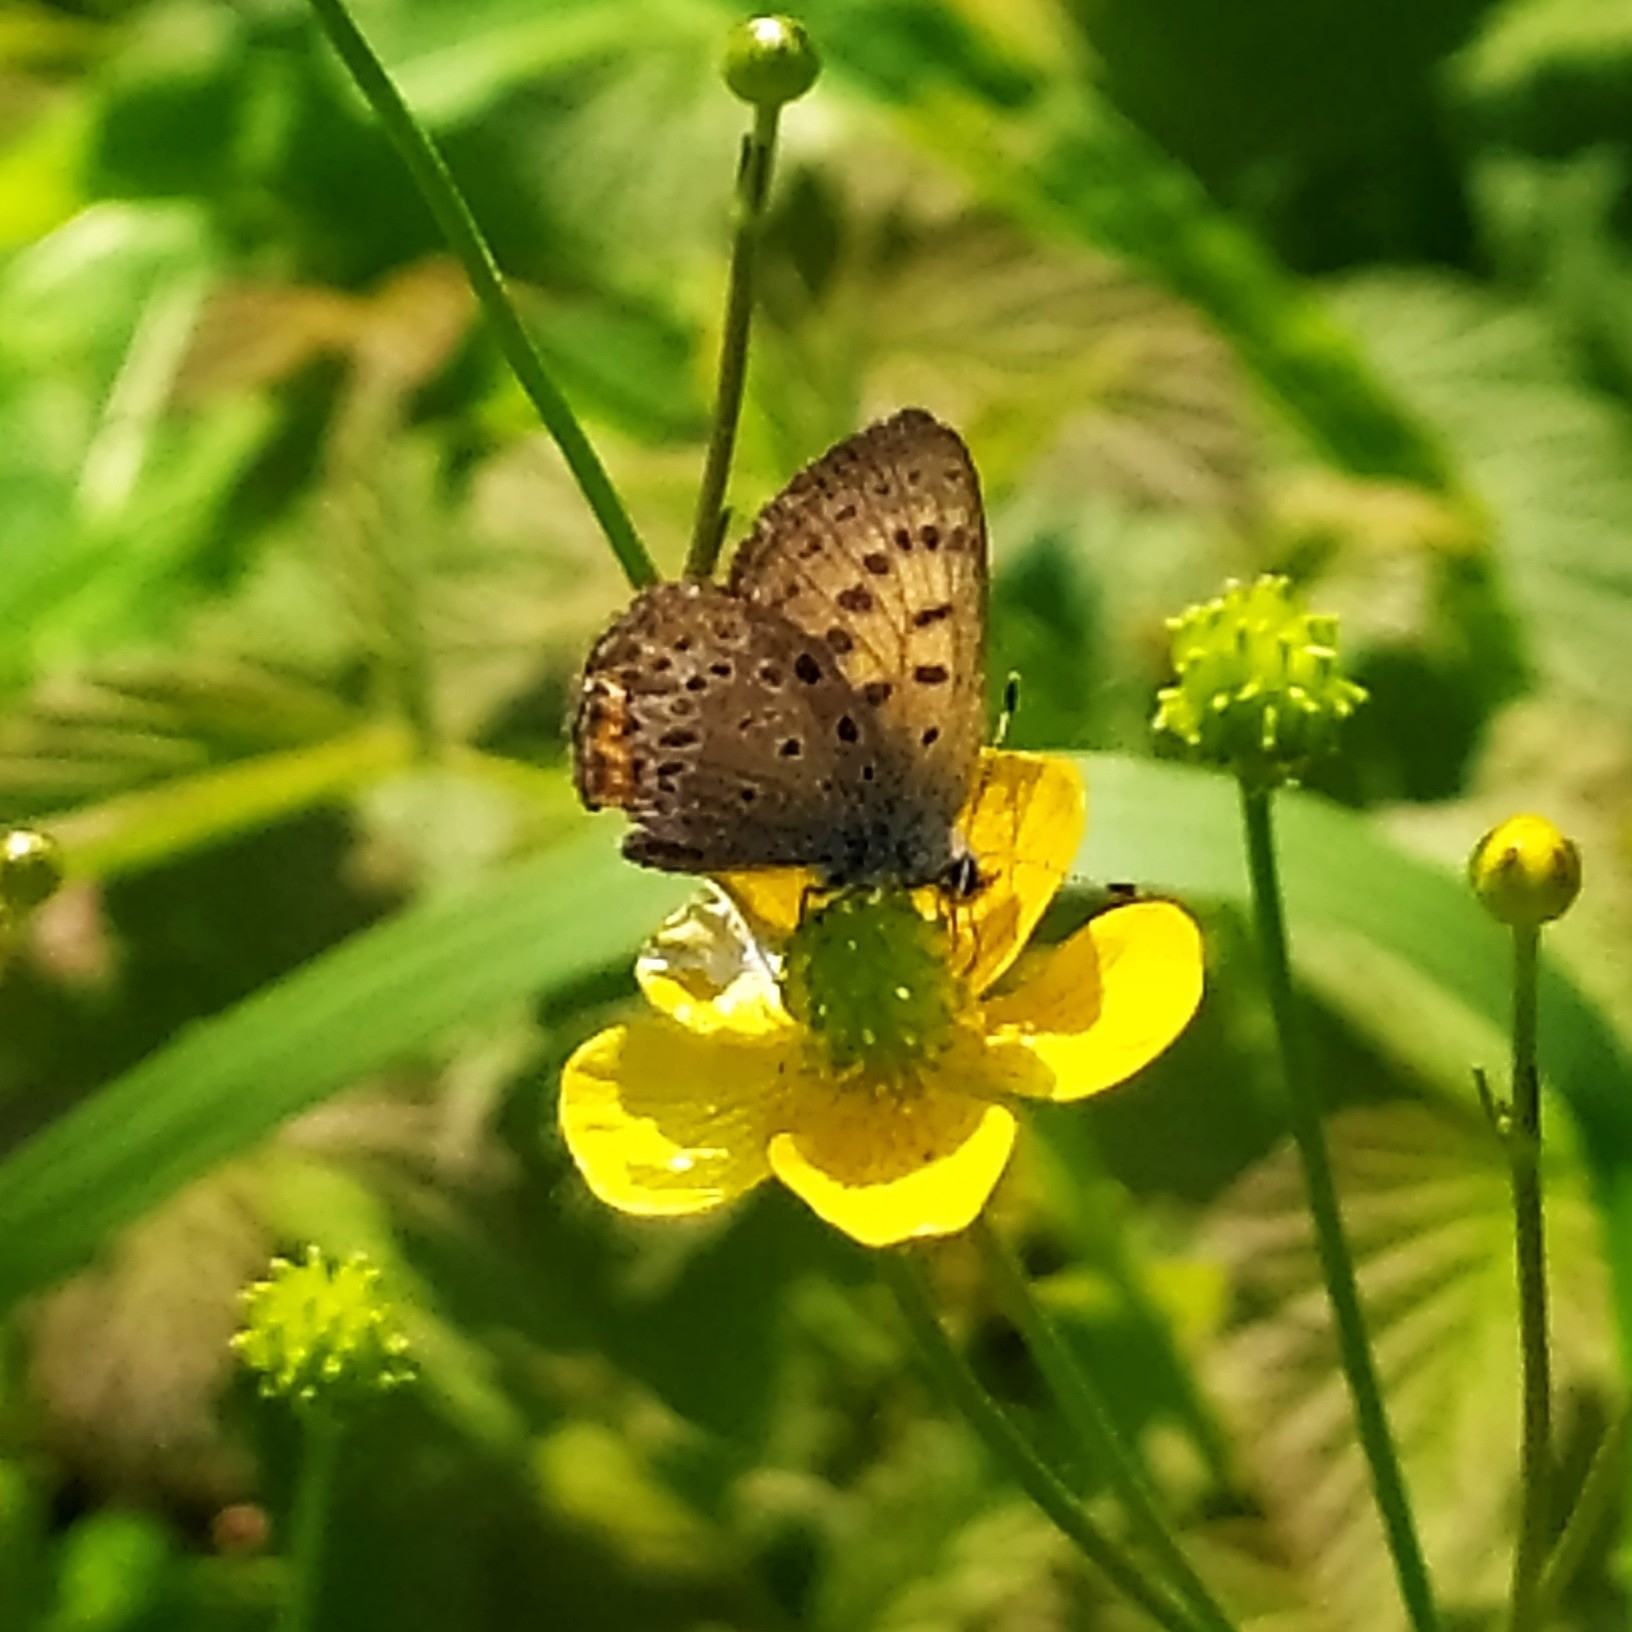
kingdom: Animalia
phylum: Arthropoda
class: Insecta
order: Lepidoptera
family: Lycaenidae
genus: Helleia
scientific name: Helleia helle
